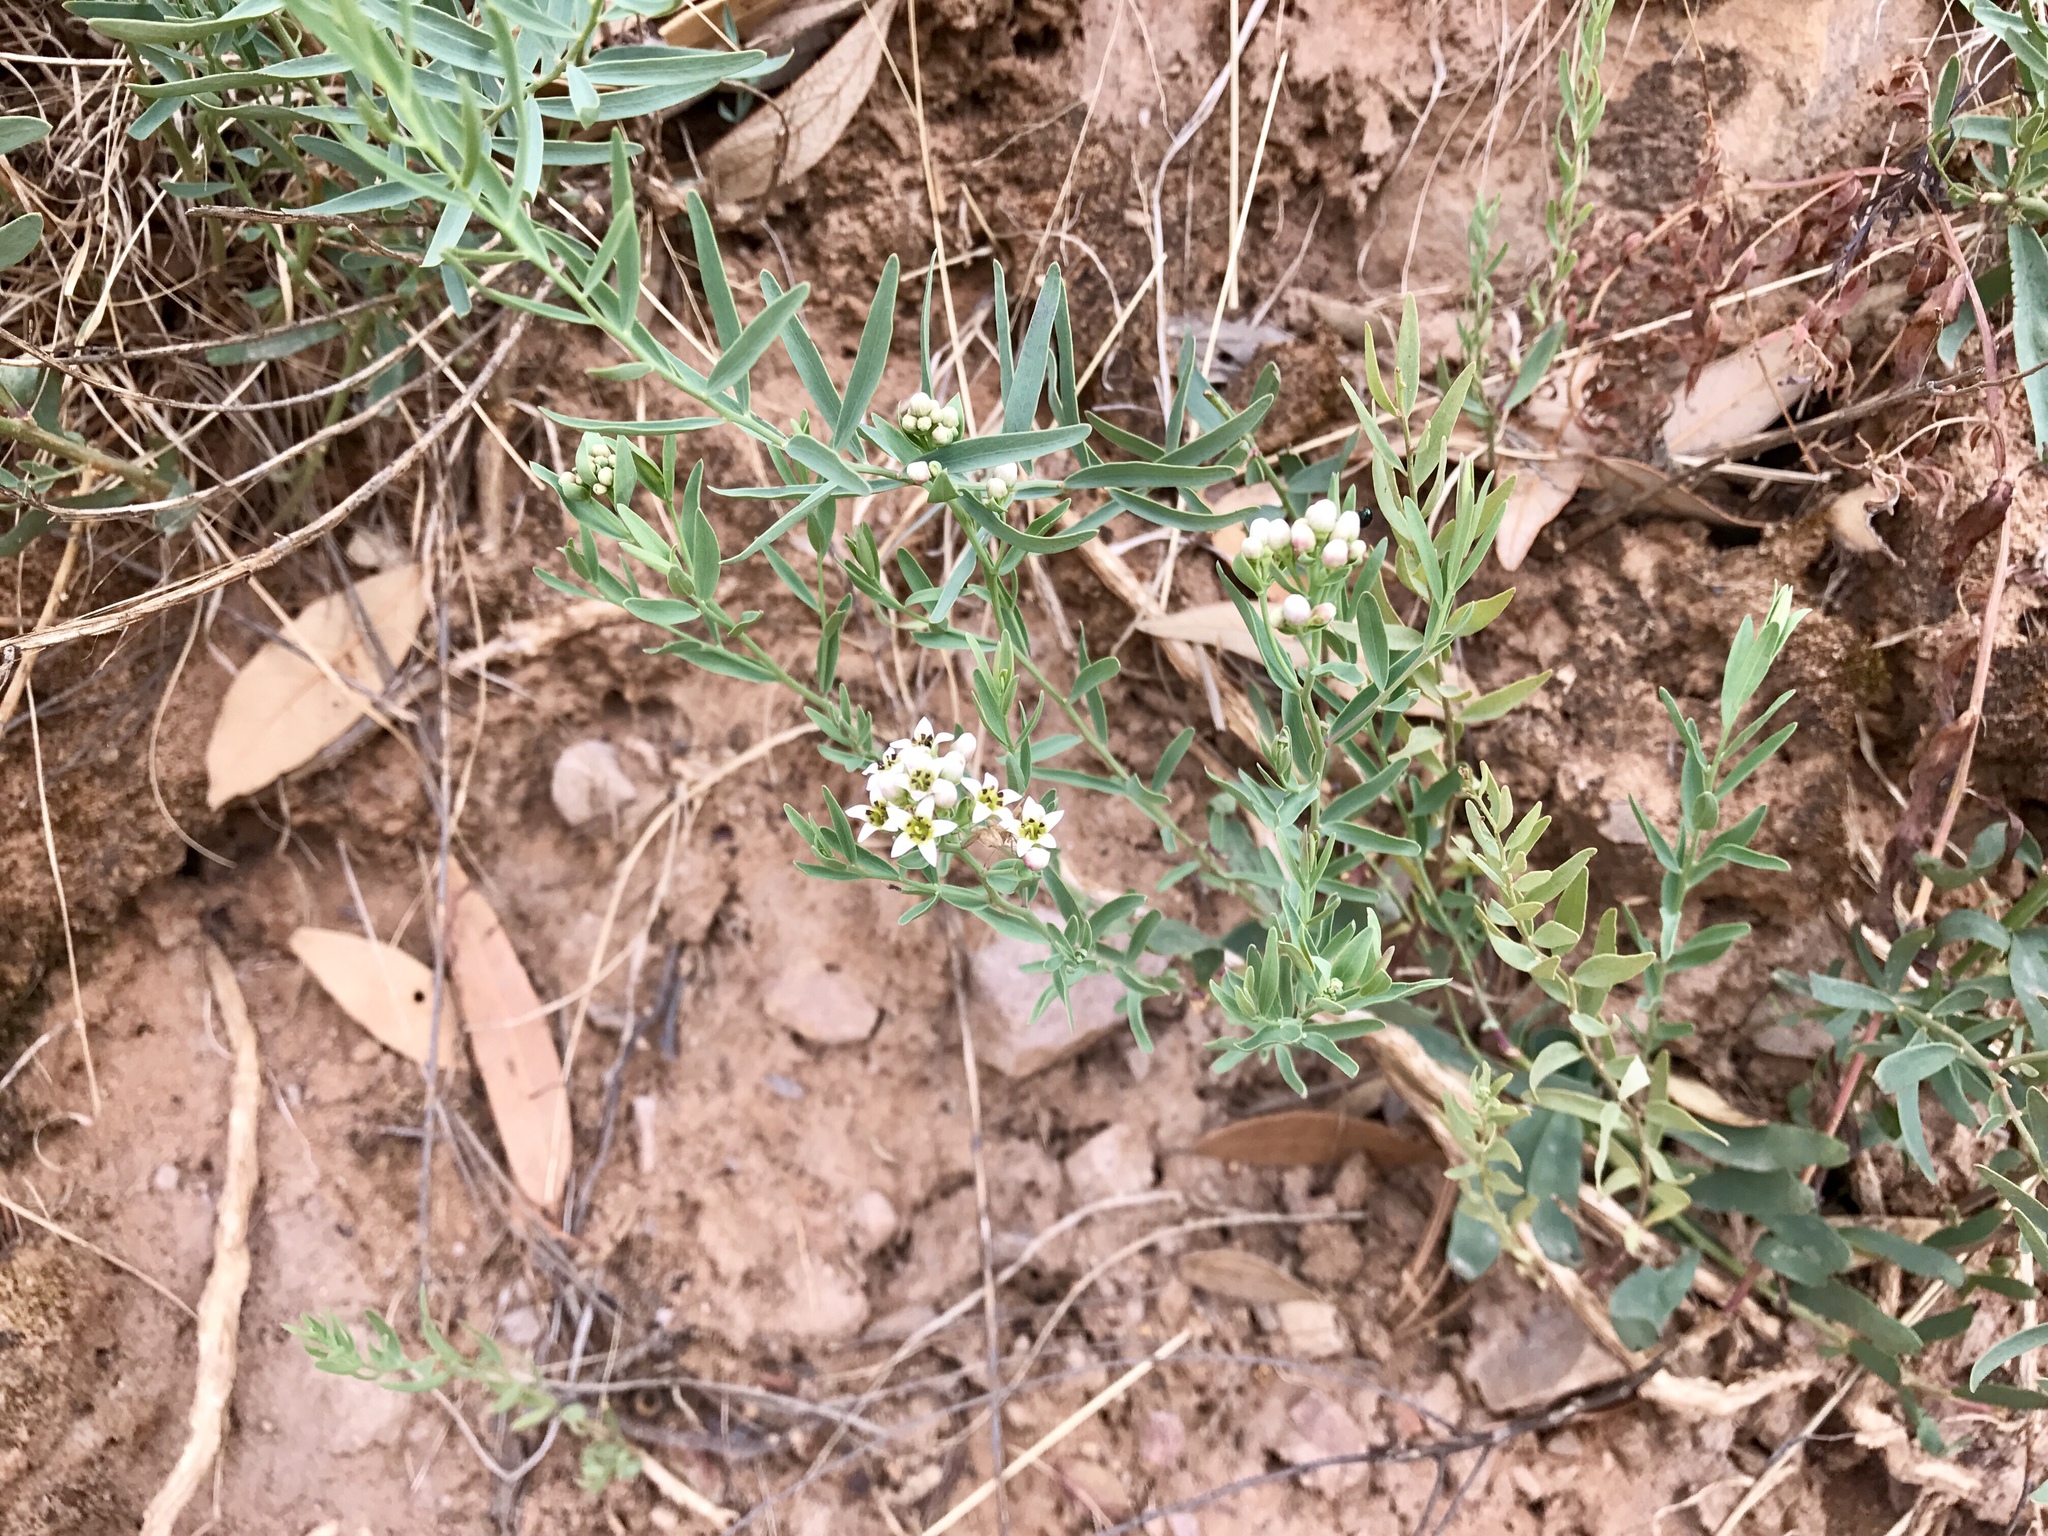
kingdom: Plantae
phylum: Tracheophyta
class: Magnoliopsida
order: Santalales
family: Comandraceae
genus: Comandra
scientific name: Comandra umbellata
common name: Bastard toadflax
